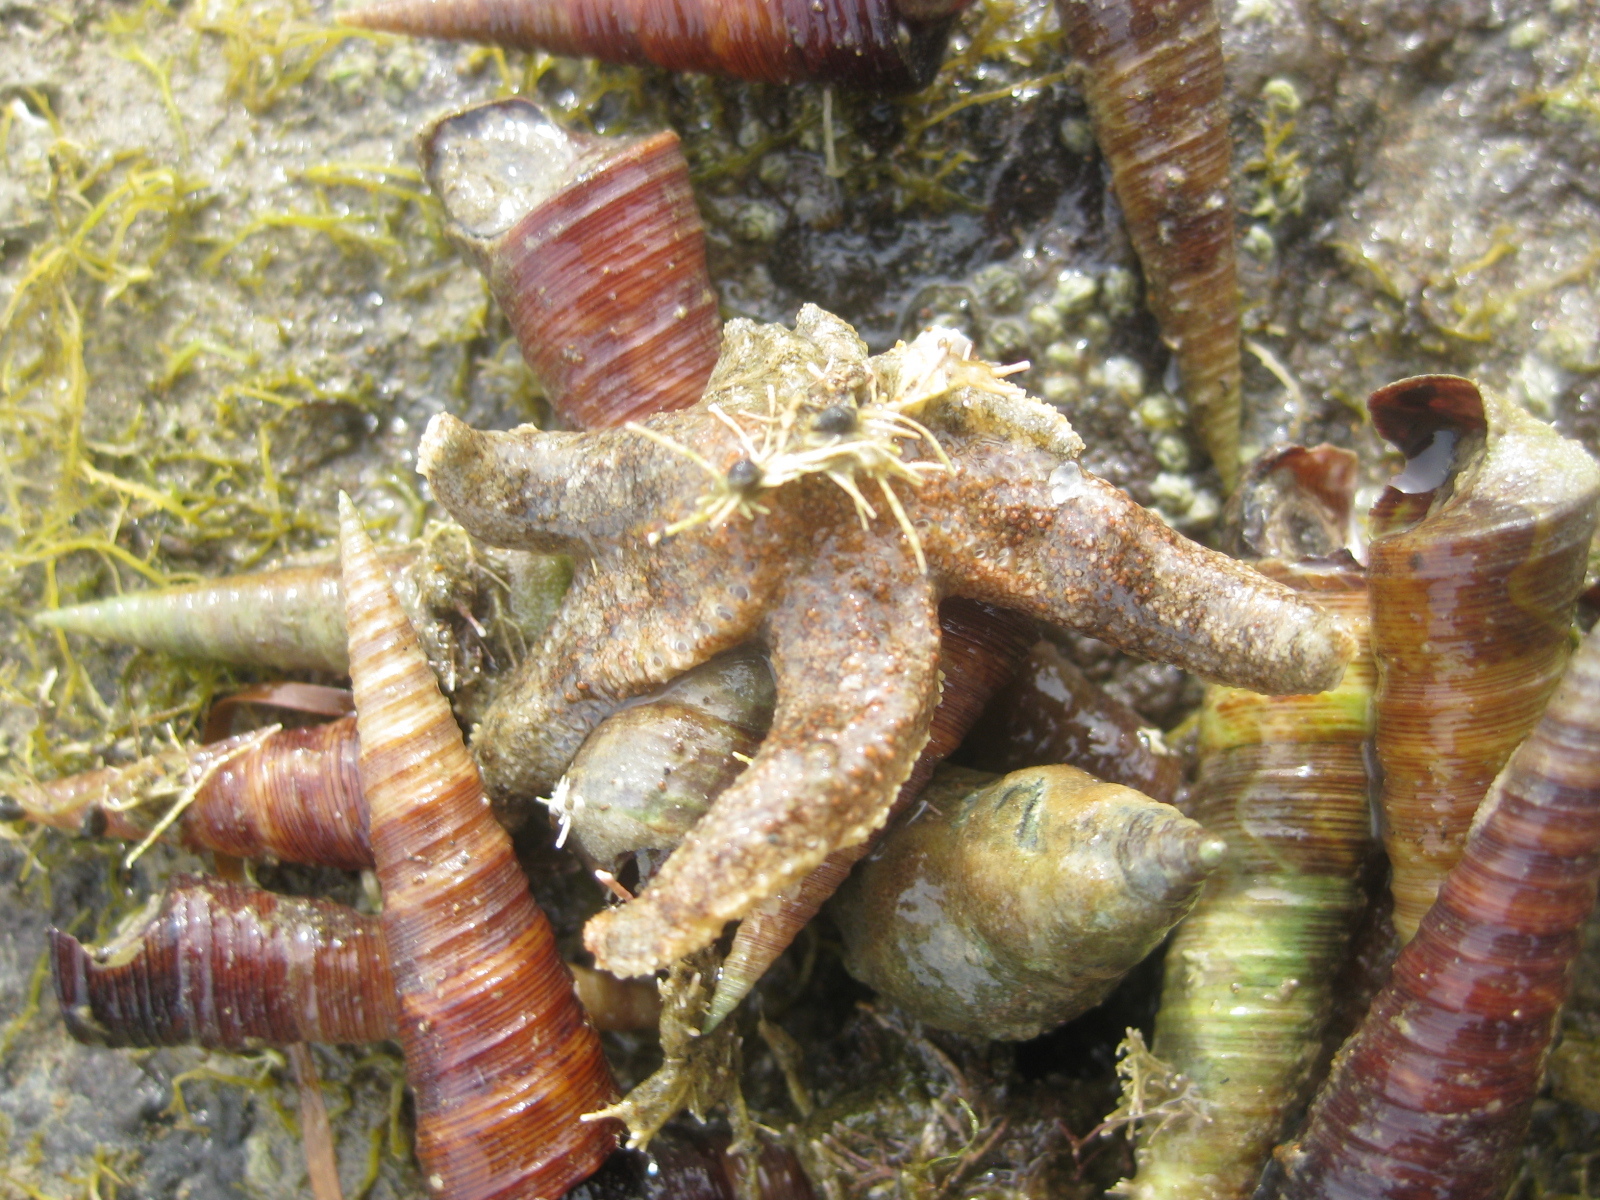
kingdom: Animalia
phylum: Echinodermata
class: Asteroidea
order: Forcipulatida
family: Stichasteridae
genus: Allostichaster
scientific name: Allostichaster polyplax
